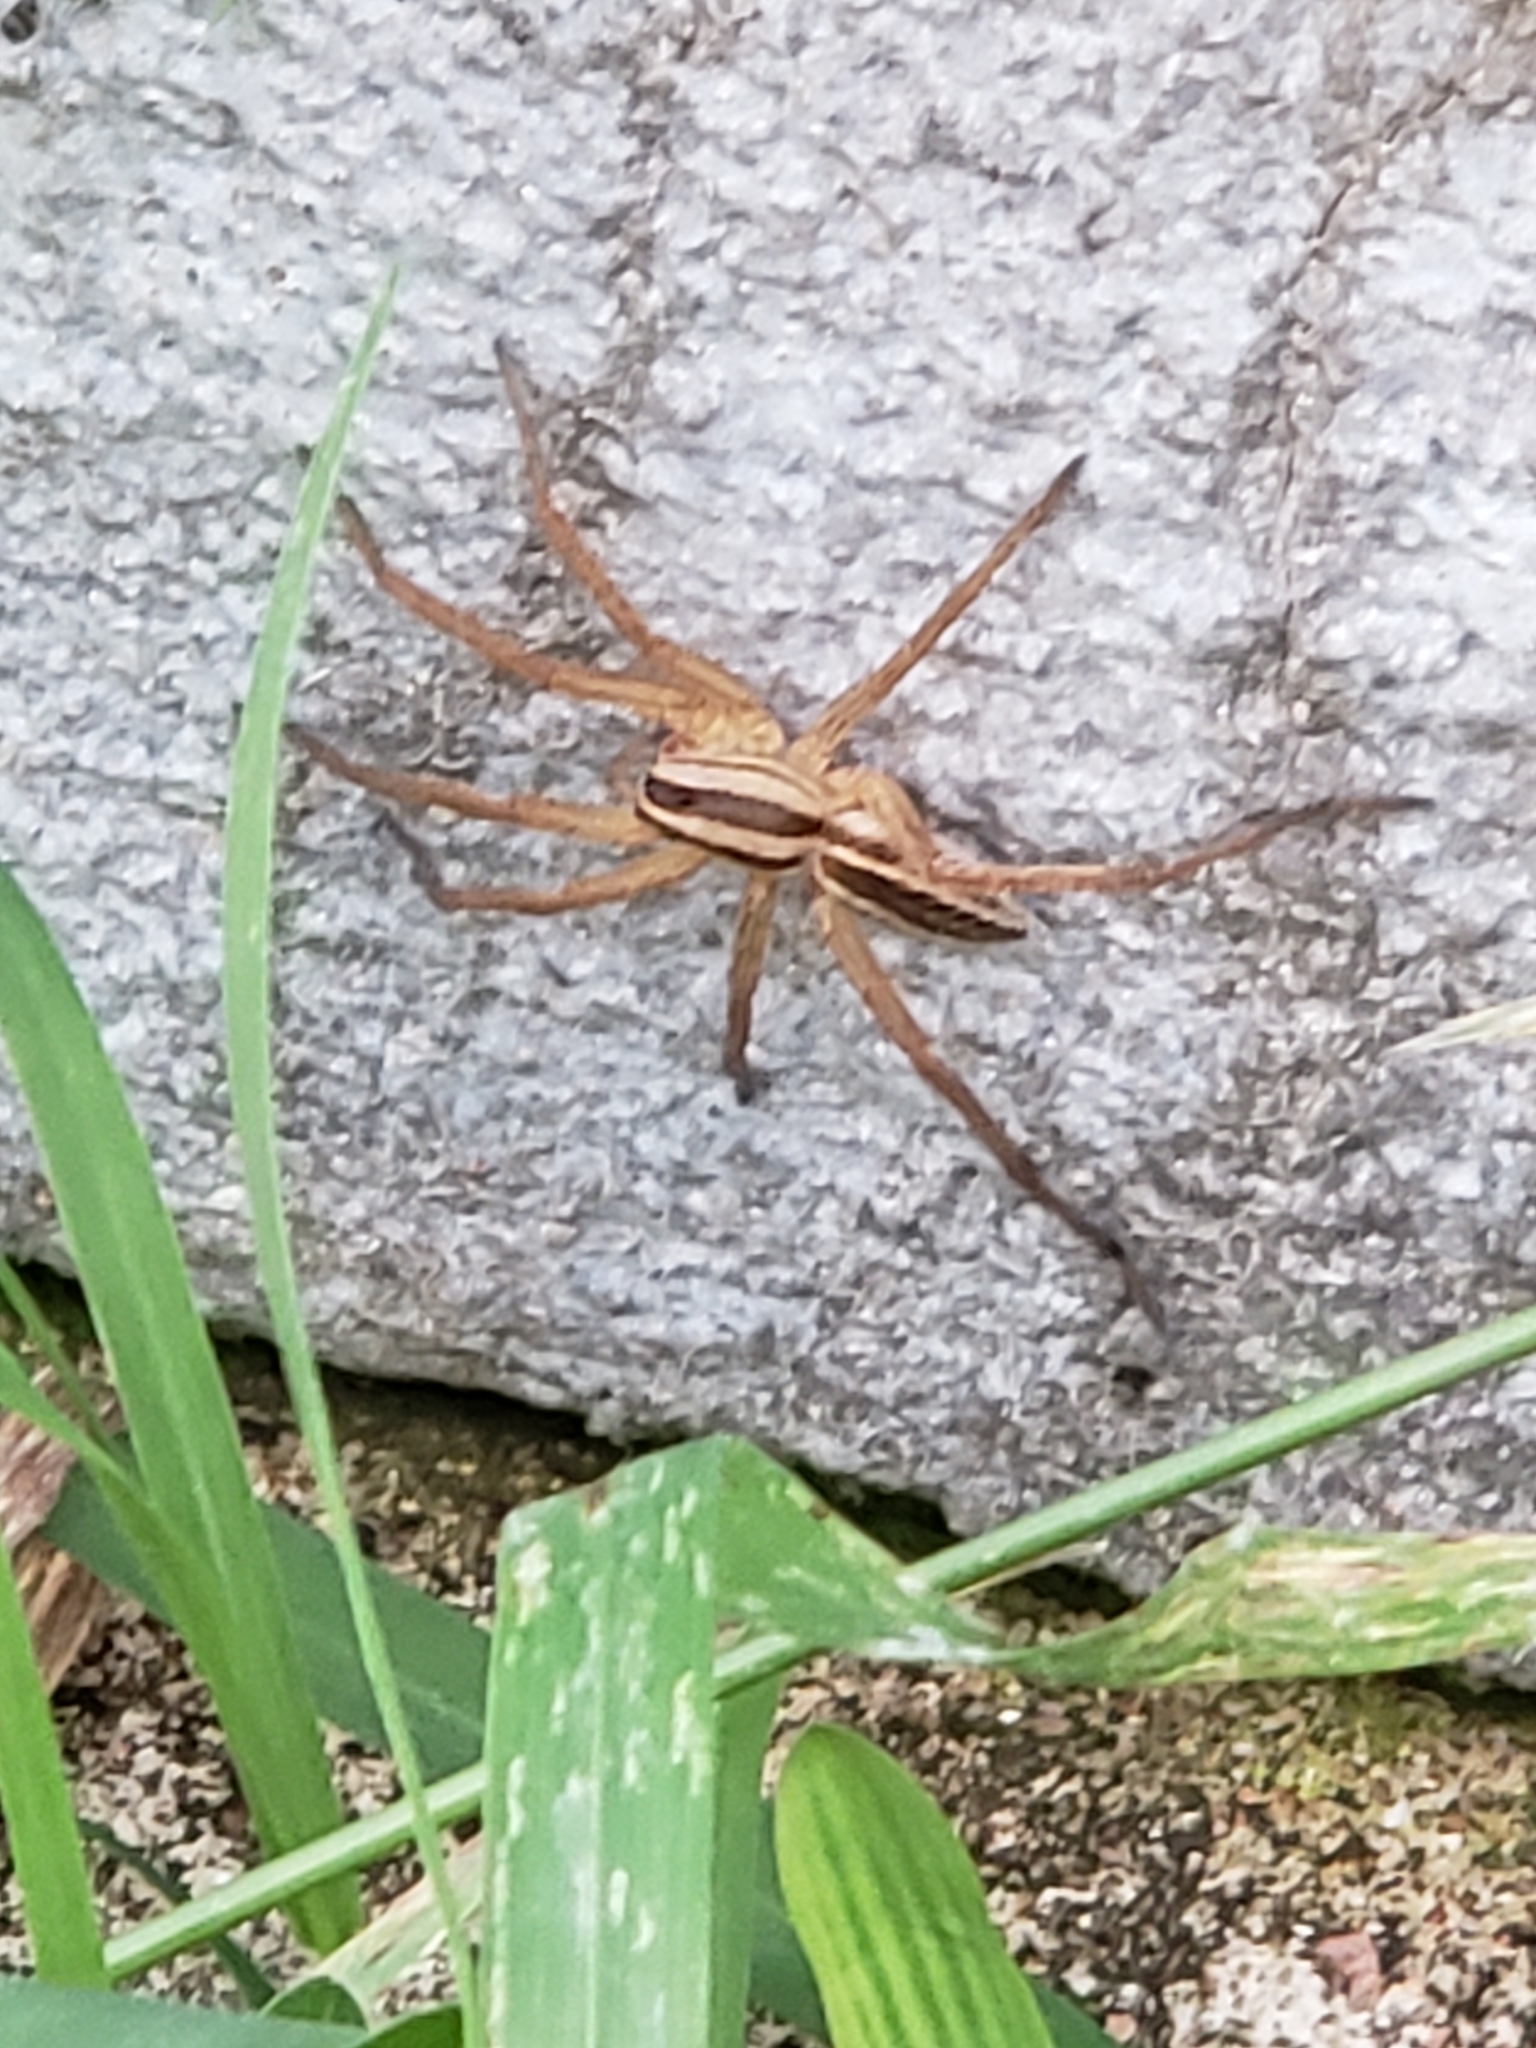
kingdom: Animalia
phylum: Arthropoda
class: Arachnida
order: Araneae
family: Lycosidae
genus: Rabidosa
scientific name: Rabidosa rabida
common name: Rabid wolf spider
